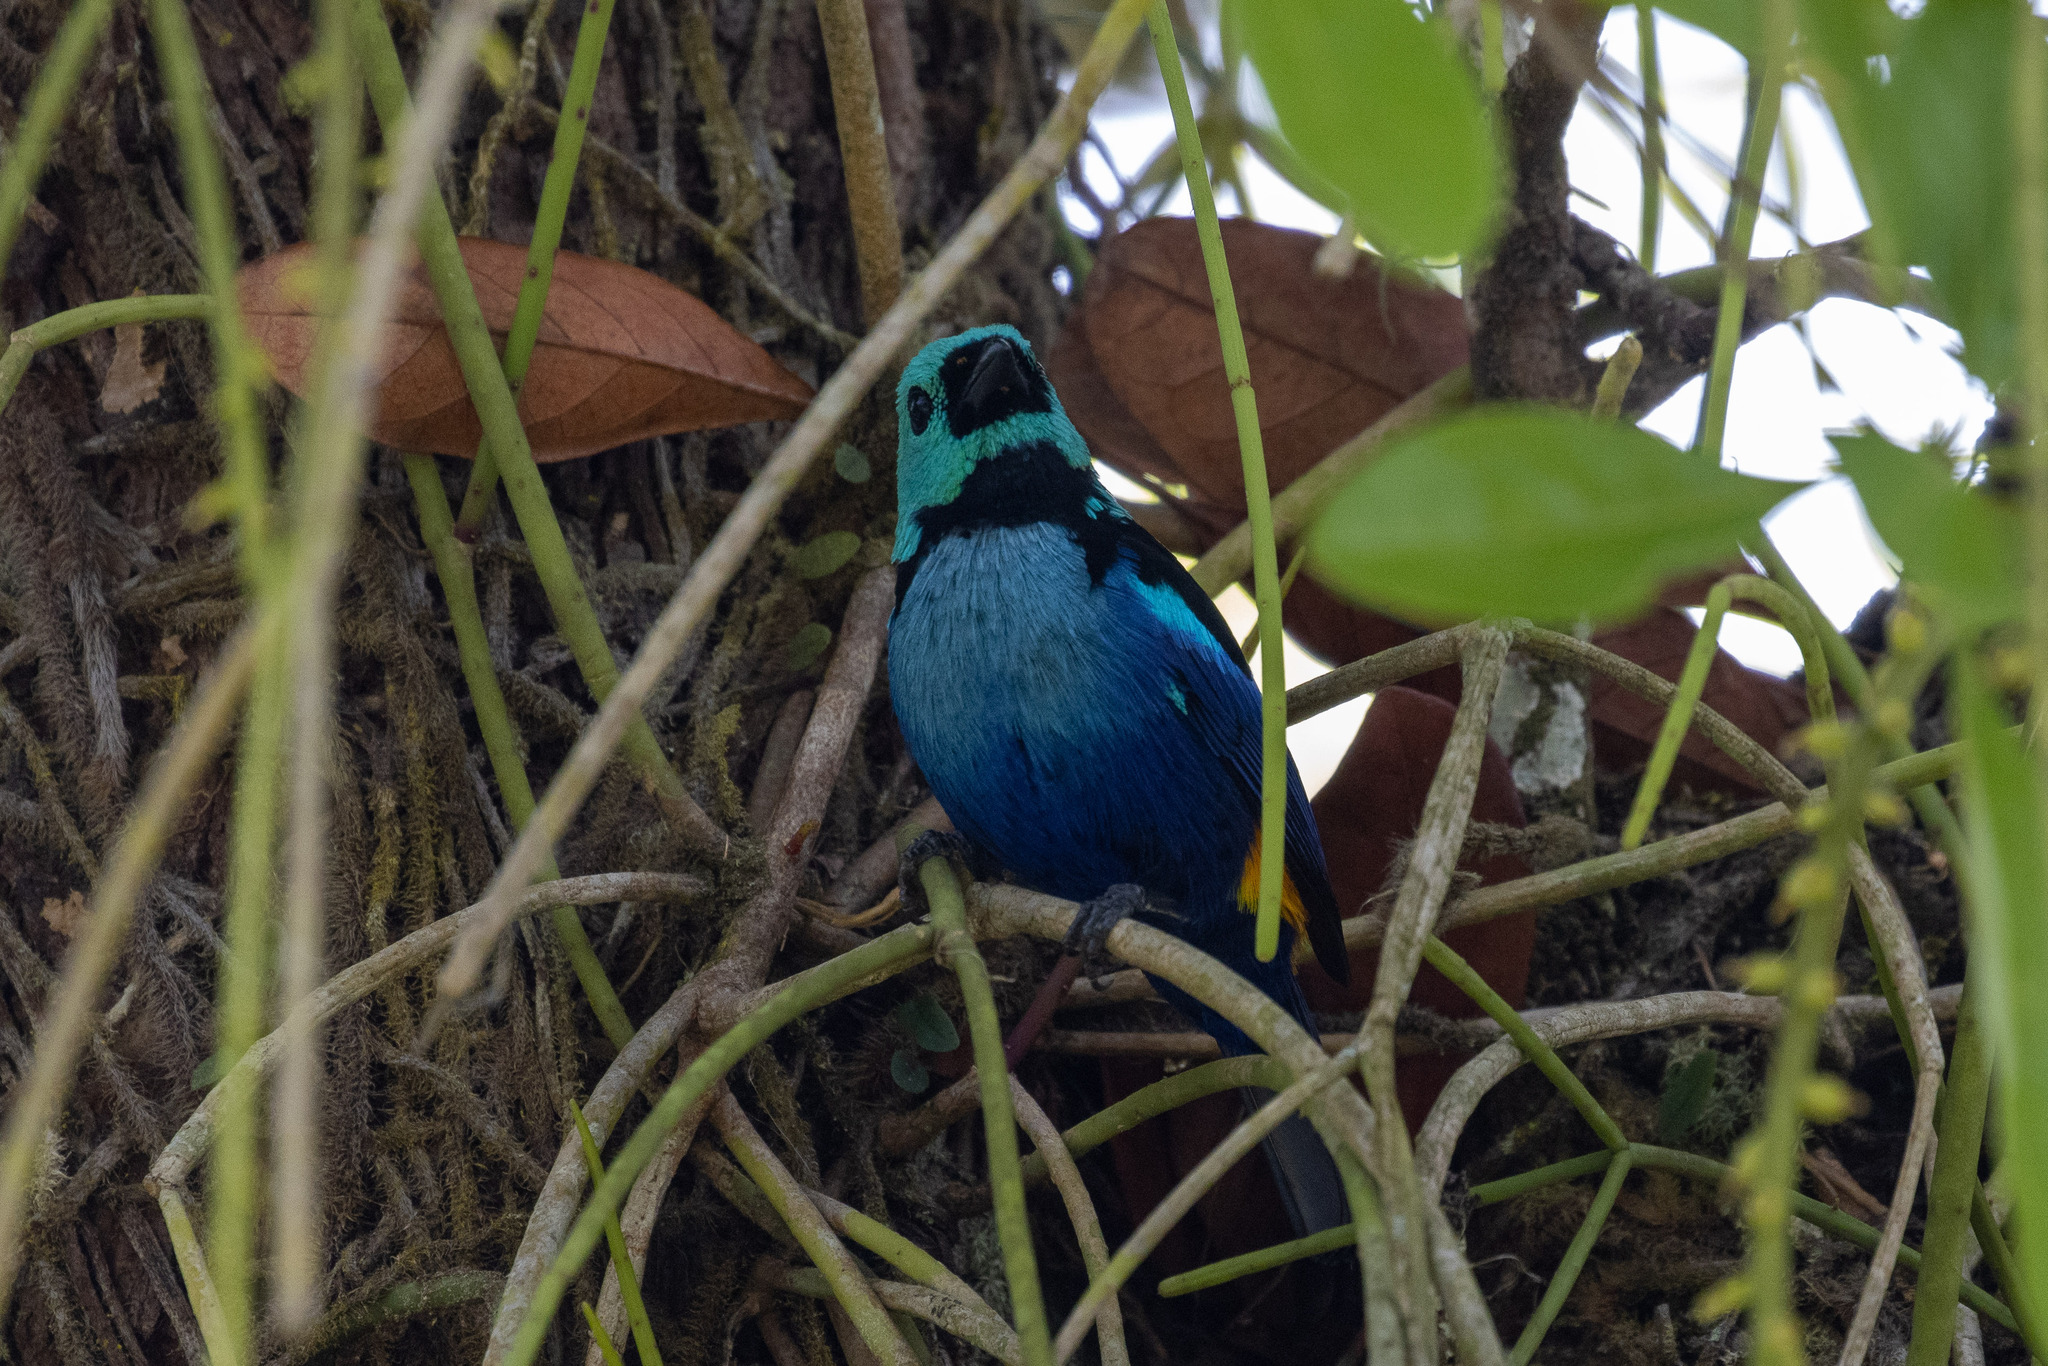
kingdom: Animalia
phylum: Chordata
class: Aves
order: Passeriformes
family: Thraupidae
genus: Tangara
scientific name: Tangara fastuosa
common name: Seven-colored tanager
